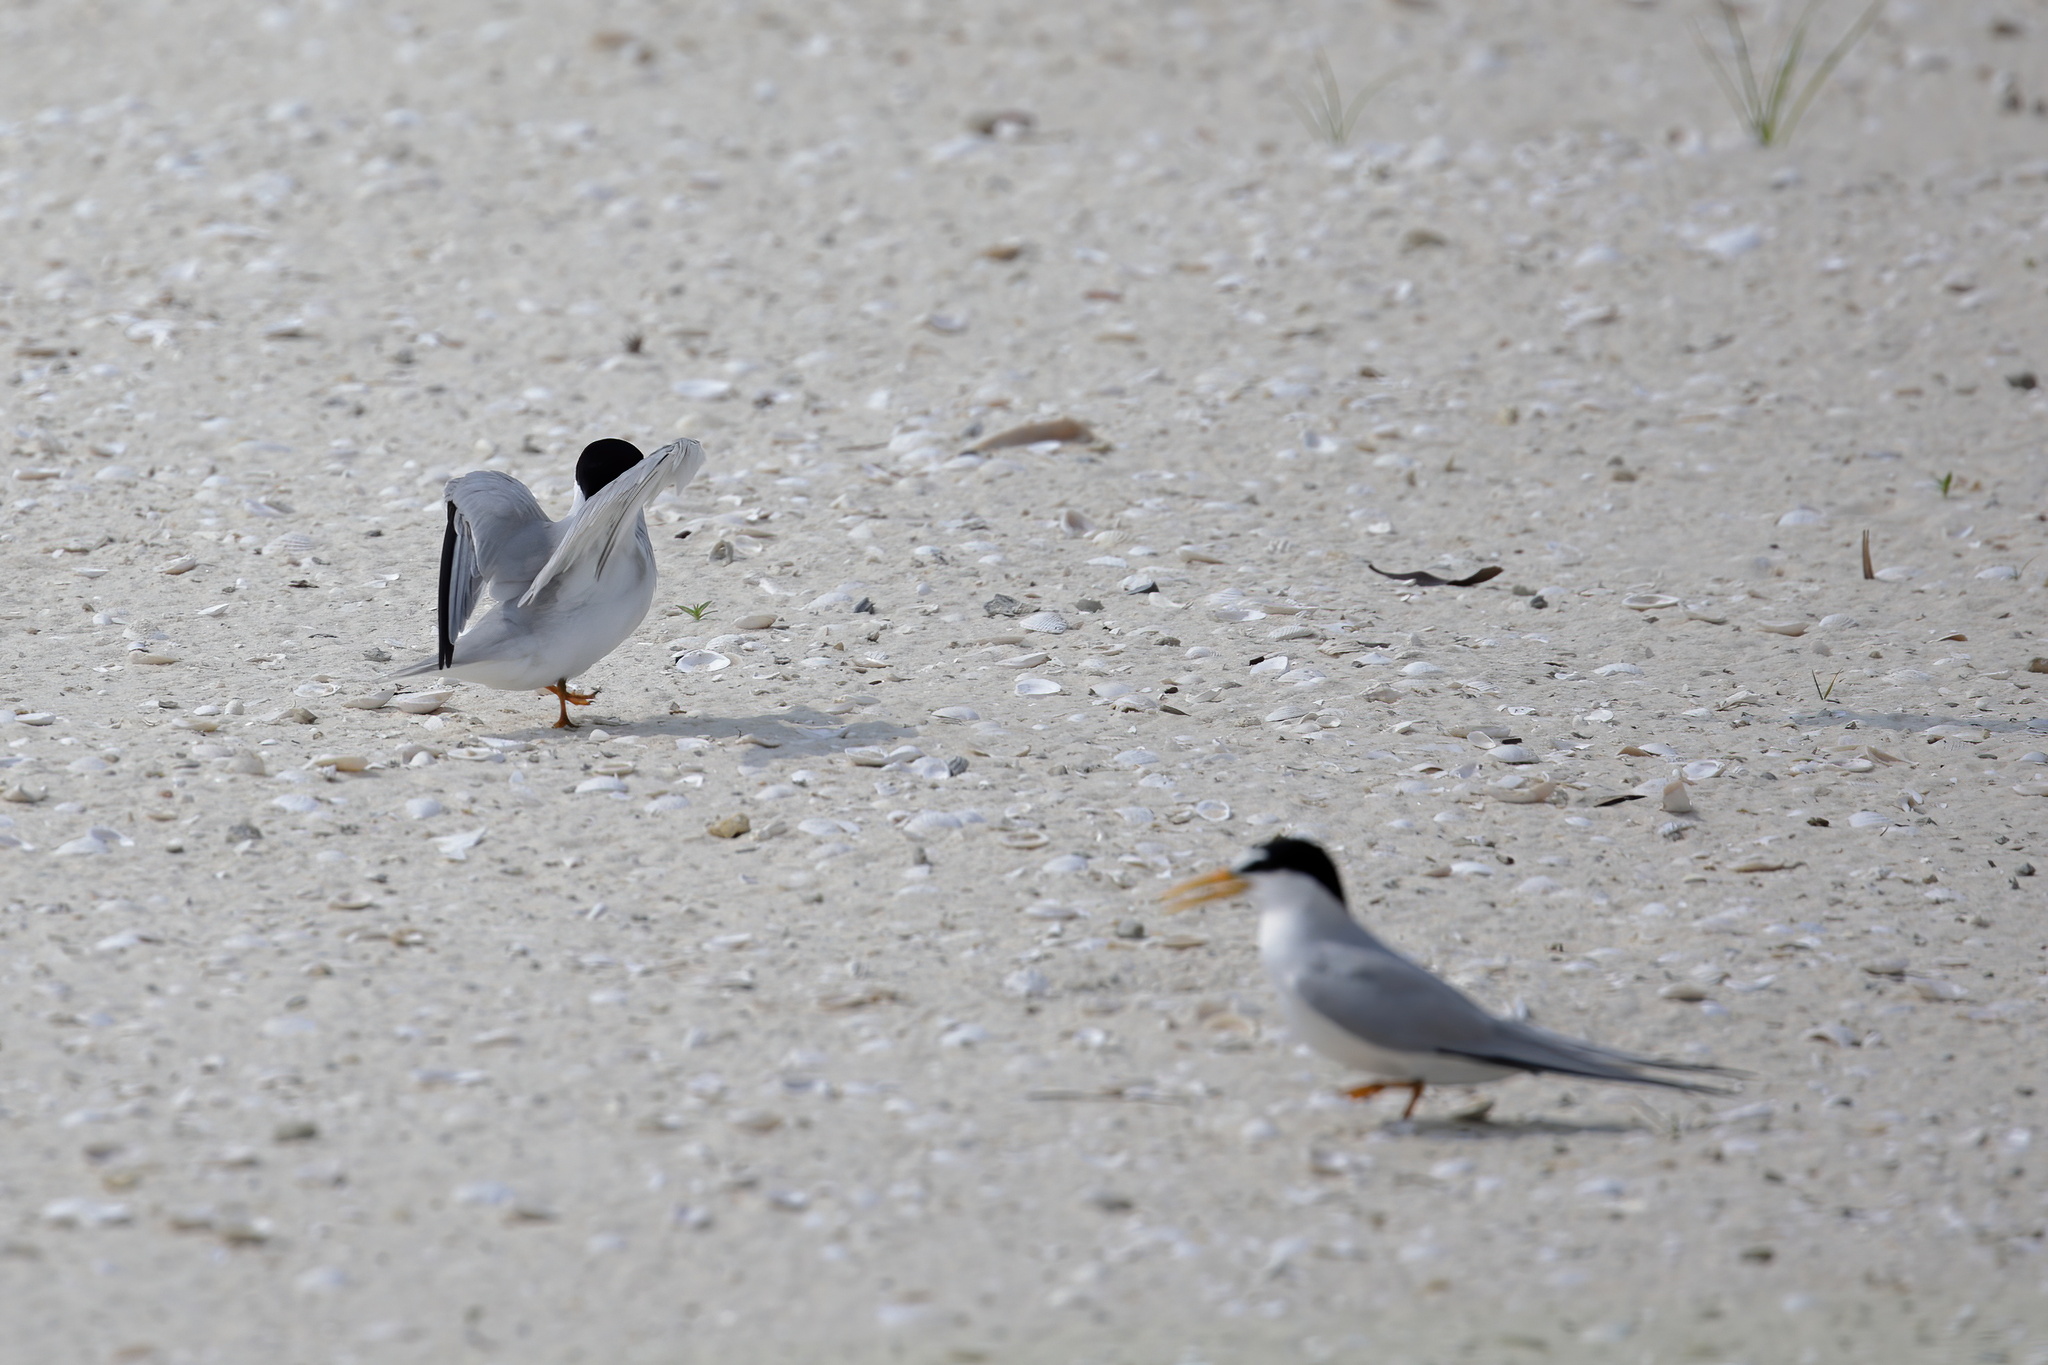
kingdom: Animalia
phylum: Chordata
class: Aves
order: Charadriiformes
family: Laridae
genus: Sternula
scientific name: Sternula antillarum
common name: Least tern
